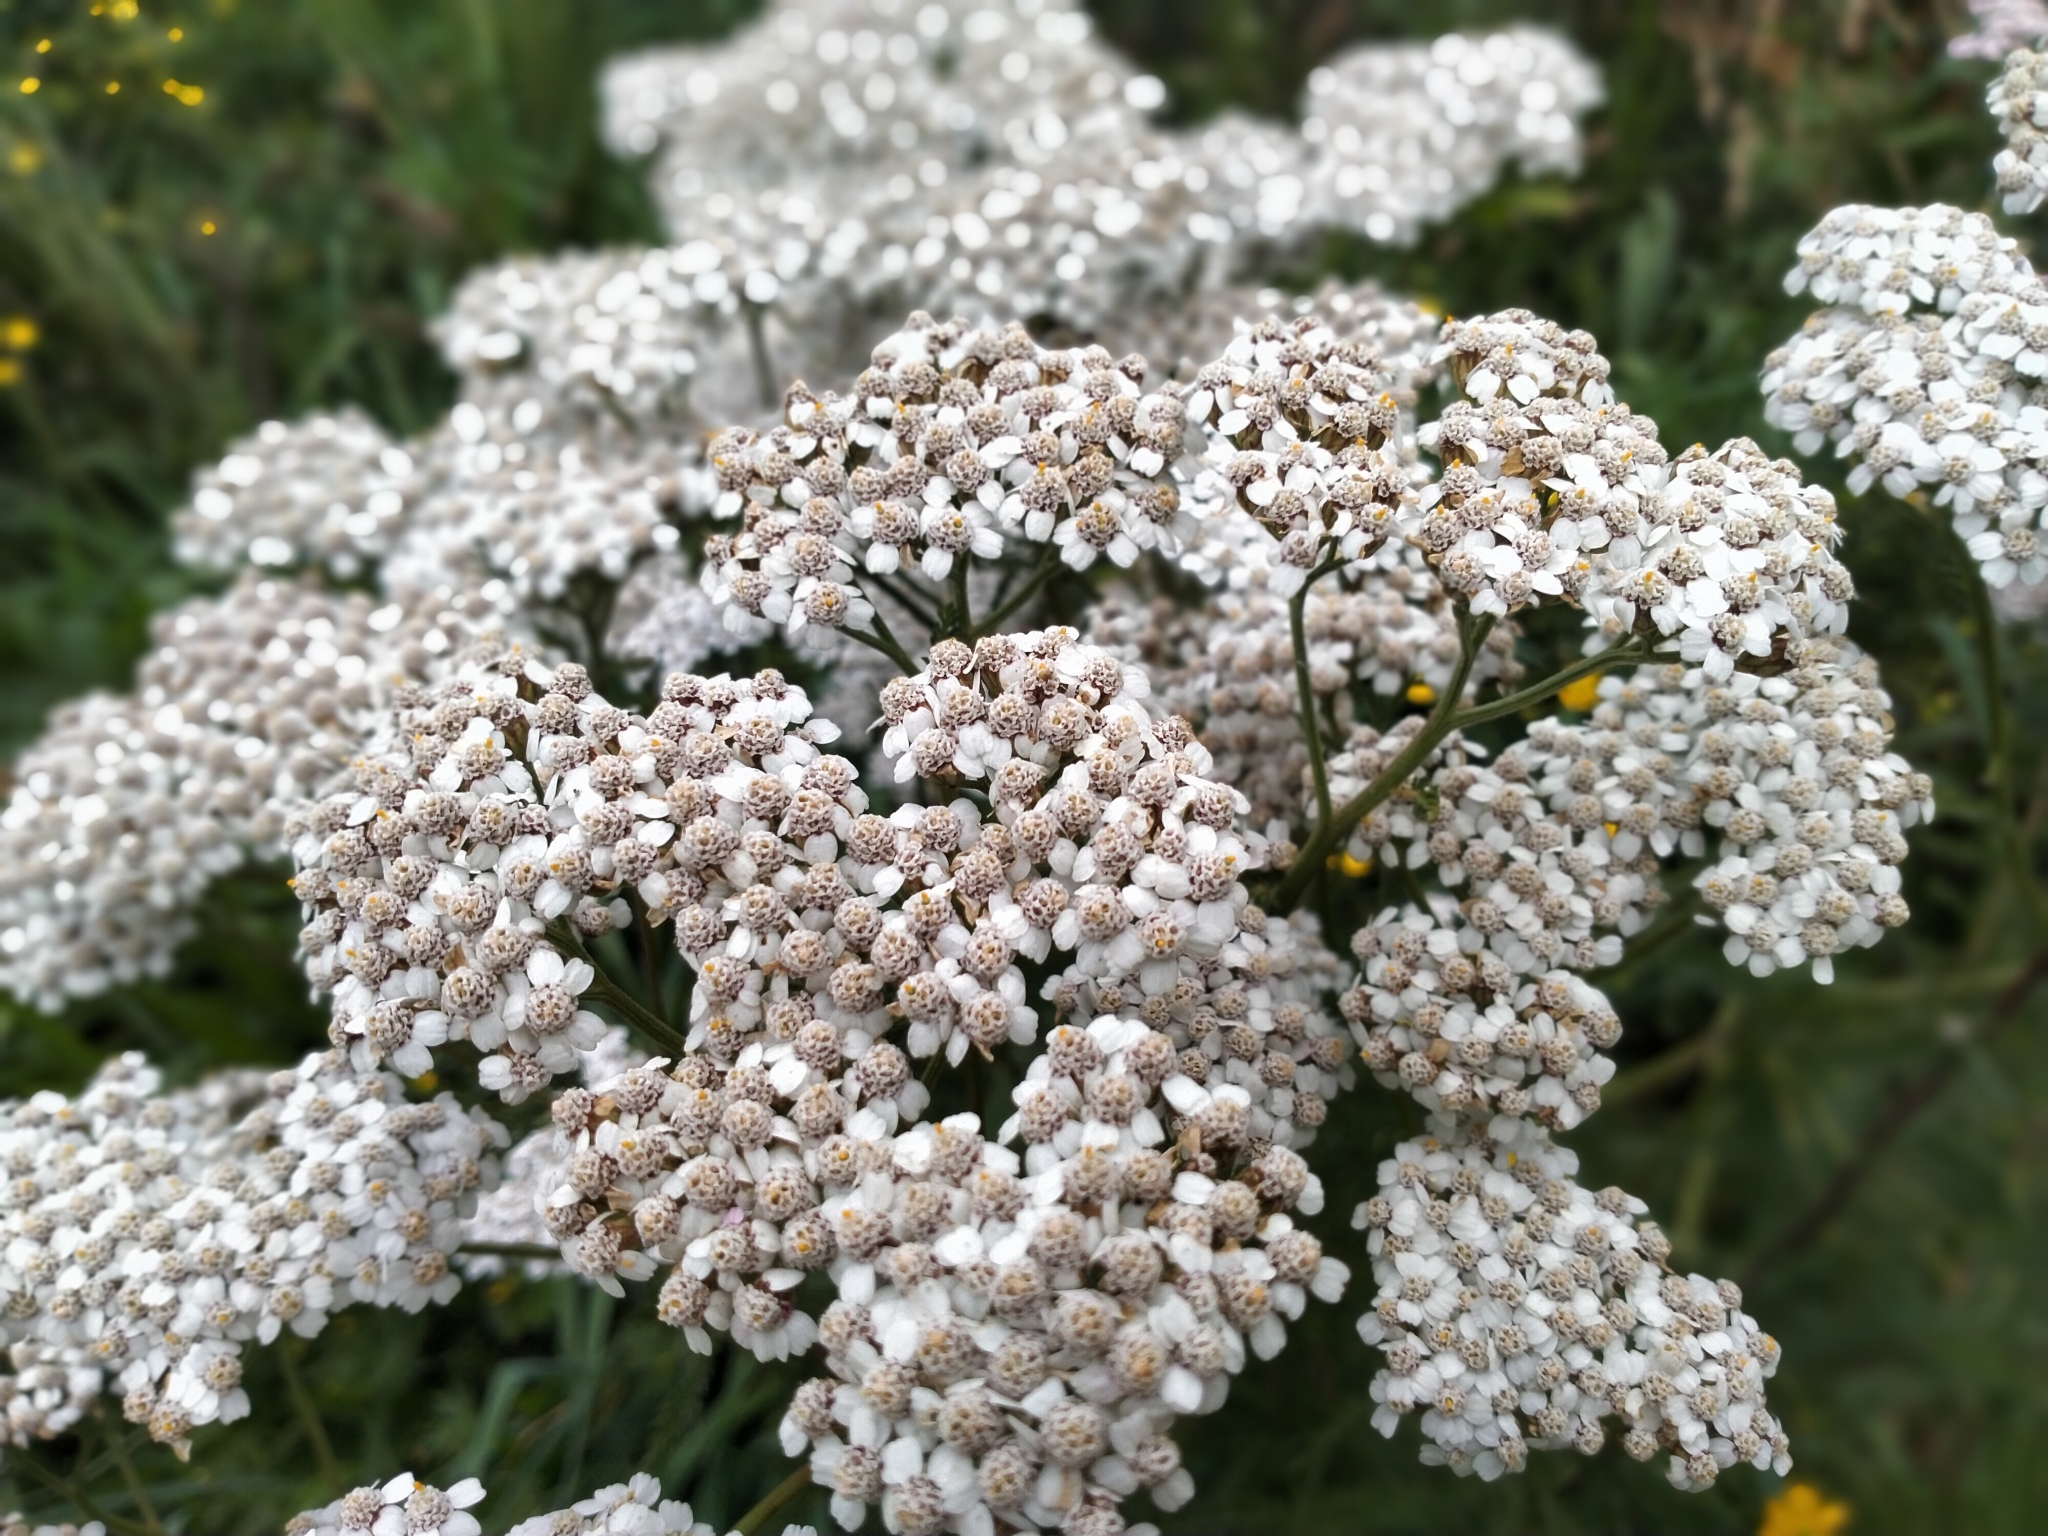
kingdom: Plantae
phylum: Tracheophyta
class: Magnoliopsida
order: Asterales
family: Asteraceae
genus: Achillea
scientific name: Achillea millefolium
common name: Yarrow
